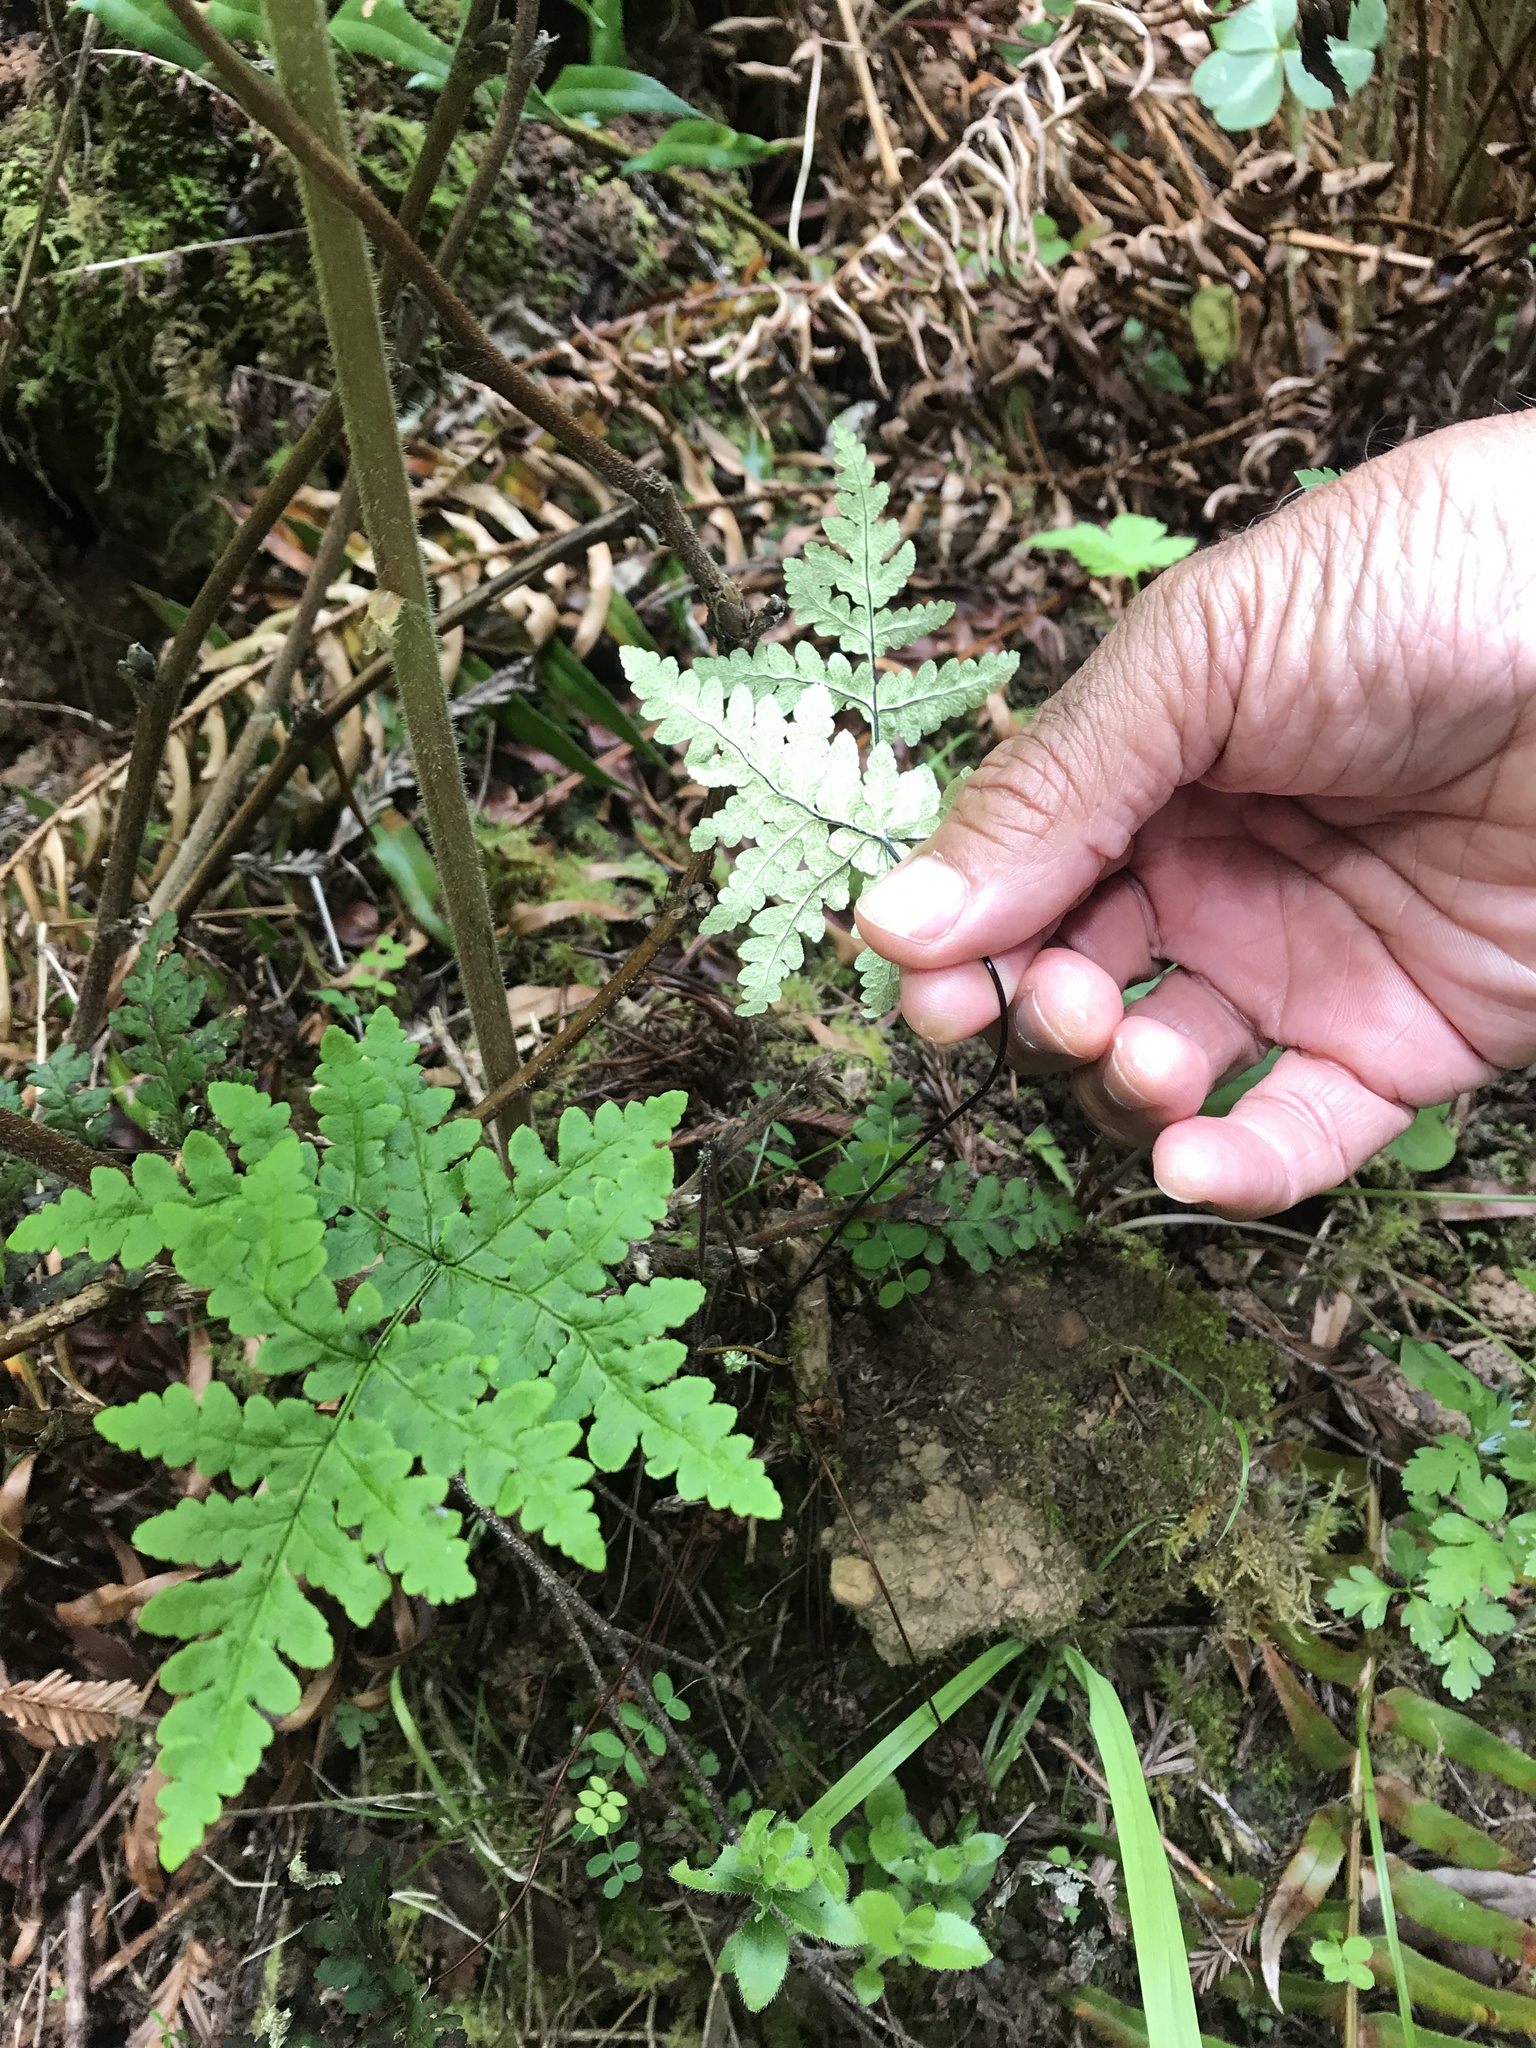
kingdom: Plantae
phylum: Tracheophyta
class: Polypodiopsida
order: Polypodiales
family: Pteridaceae
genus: Pentagramma
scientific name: Pentagramma triangularis
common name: Gold fern
